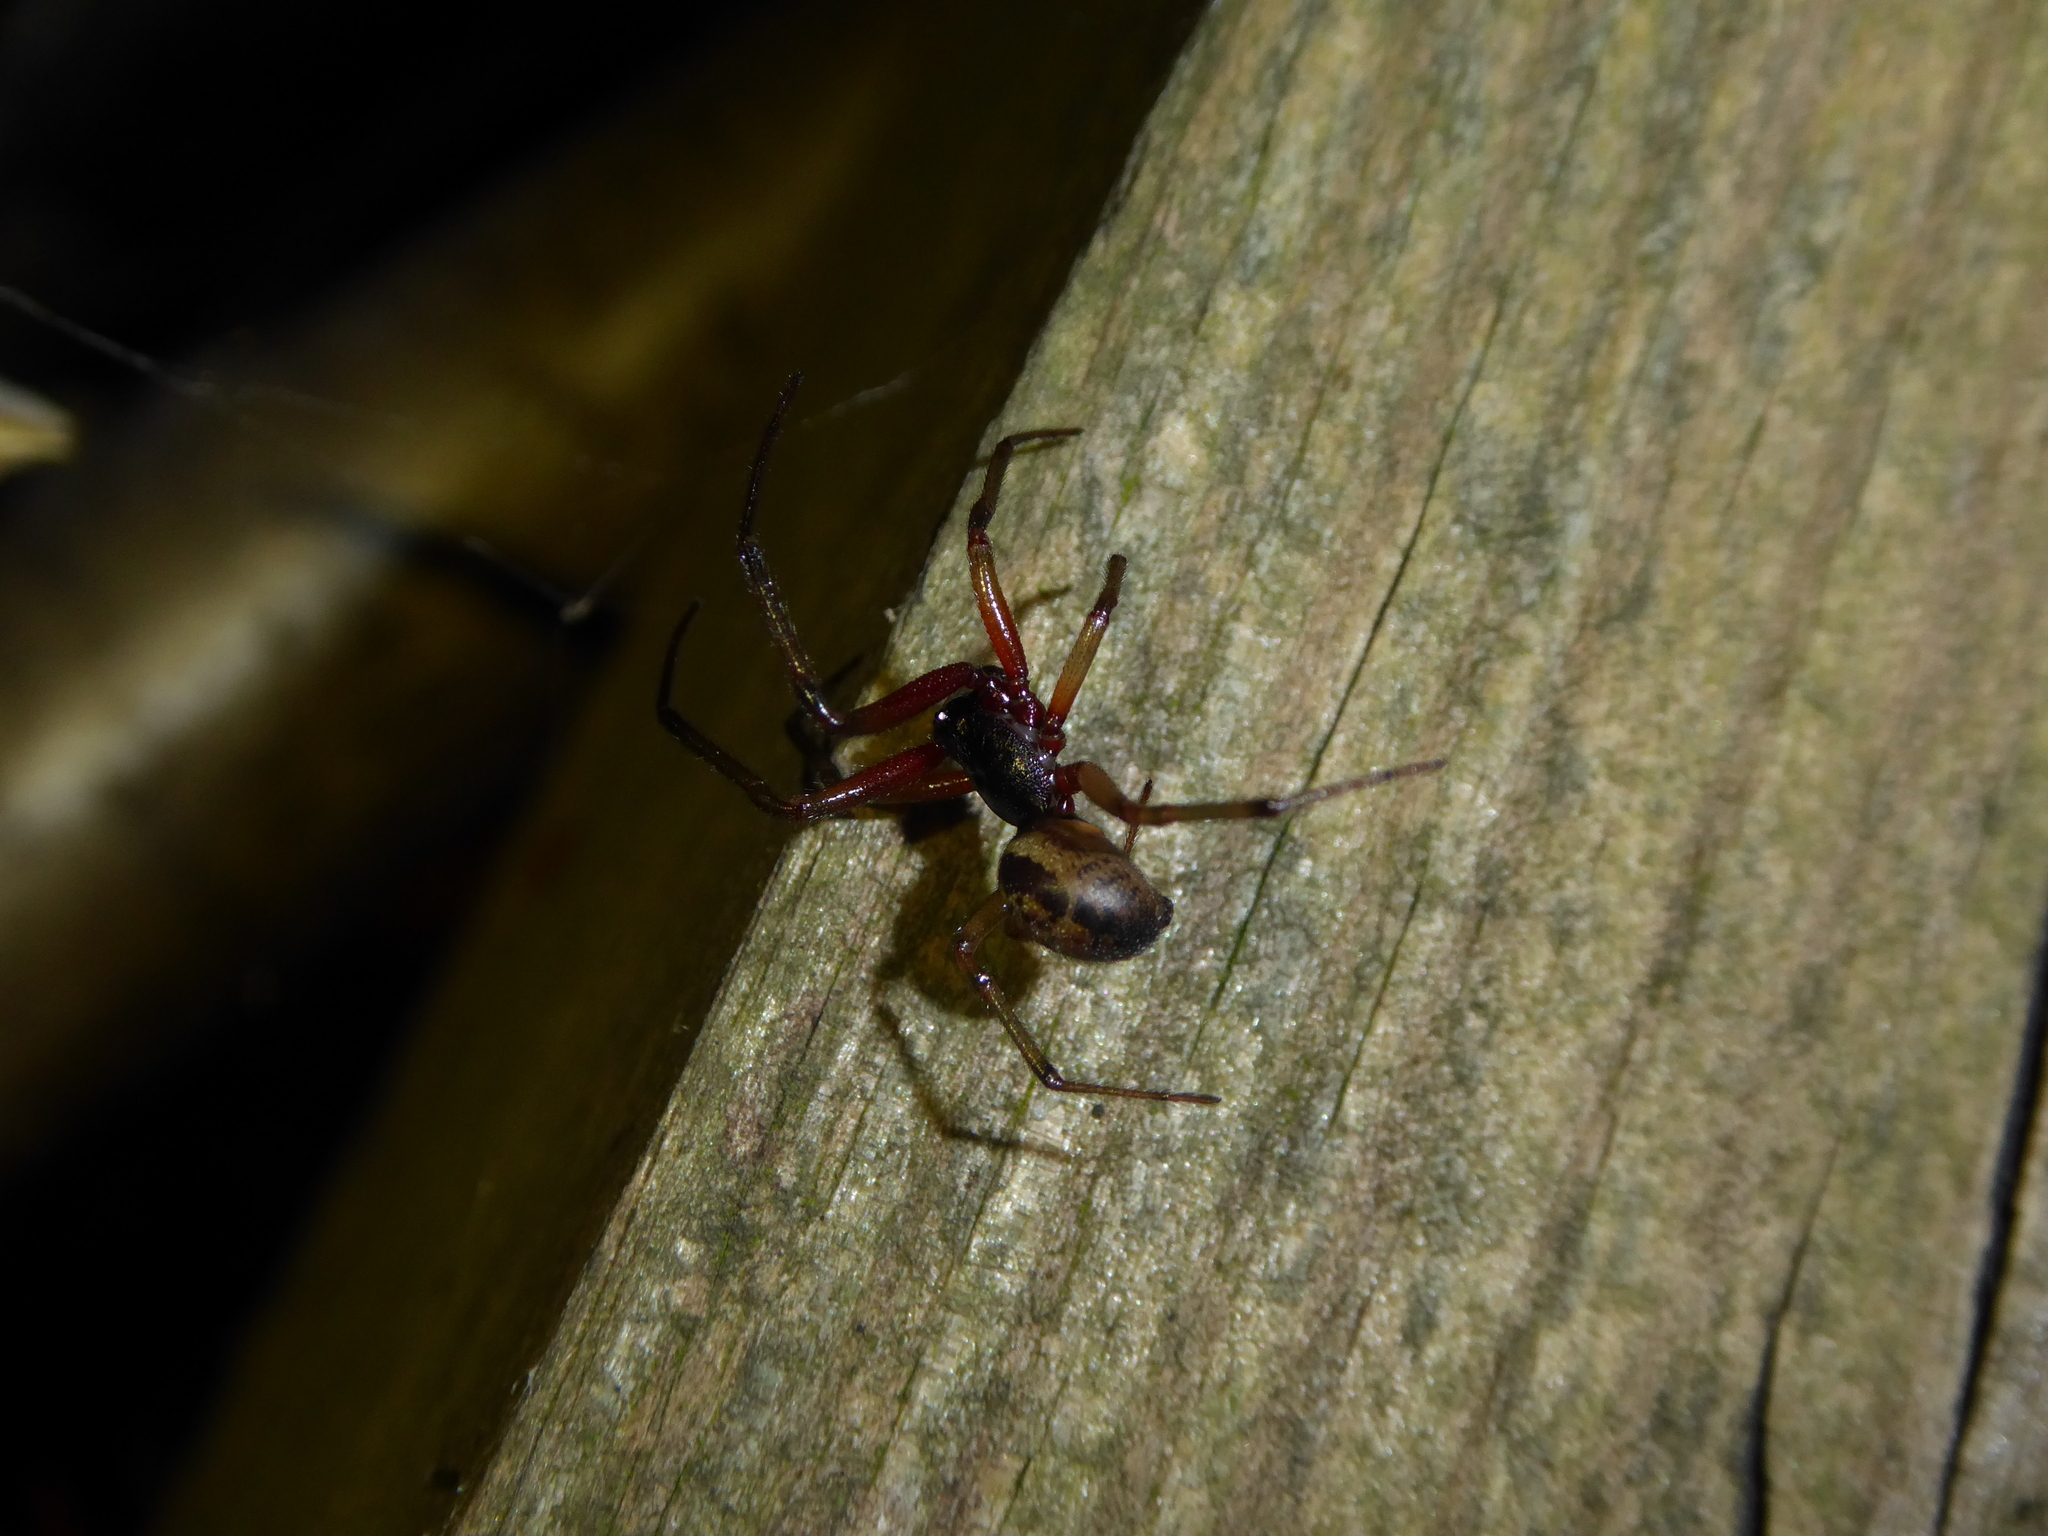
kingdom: Animalia
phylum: Arthropoda
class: Arachnida
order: Araneae
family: Theridiidae
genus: Steatoda
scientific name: Steatoda nobilis
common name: Cobweb weaver
